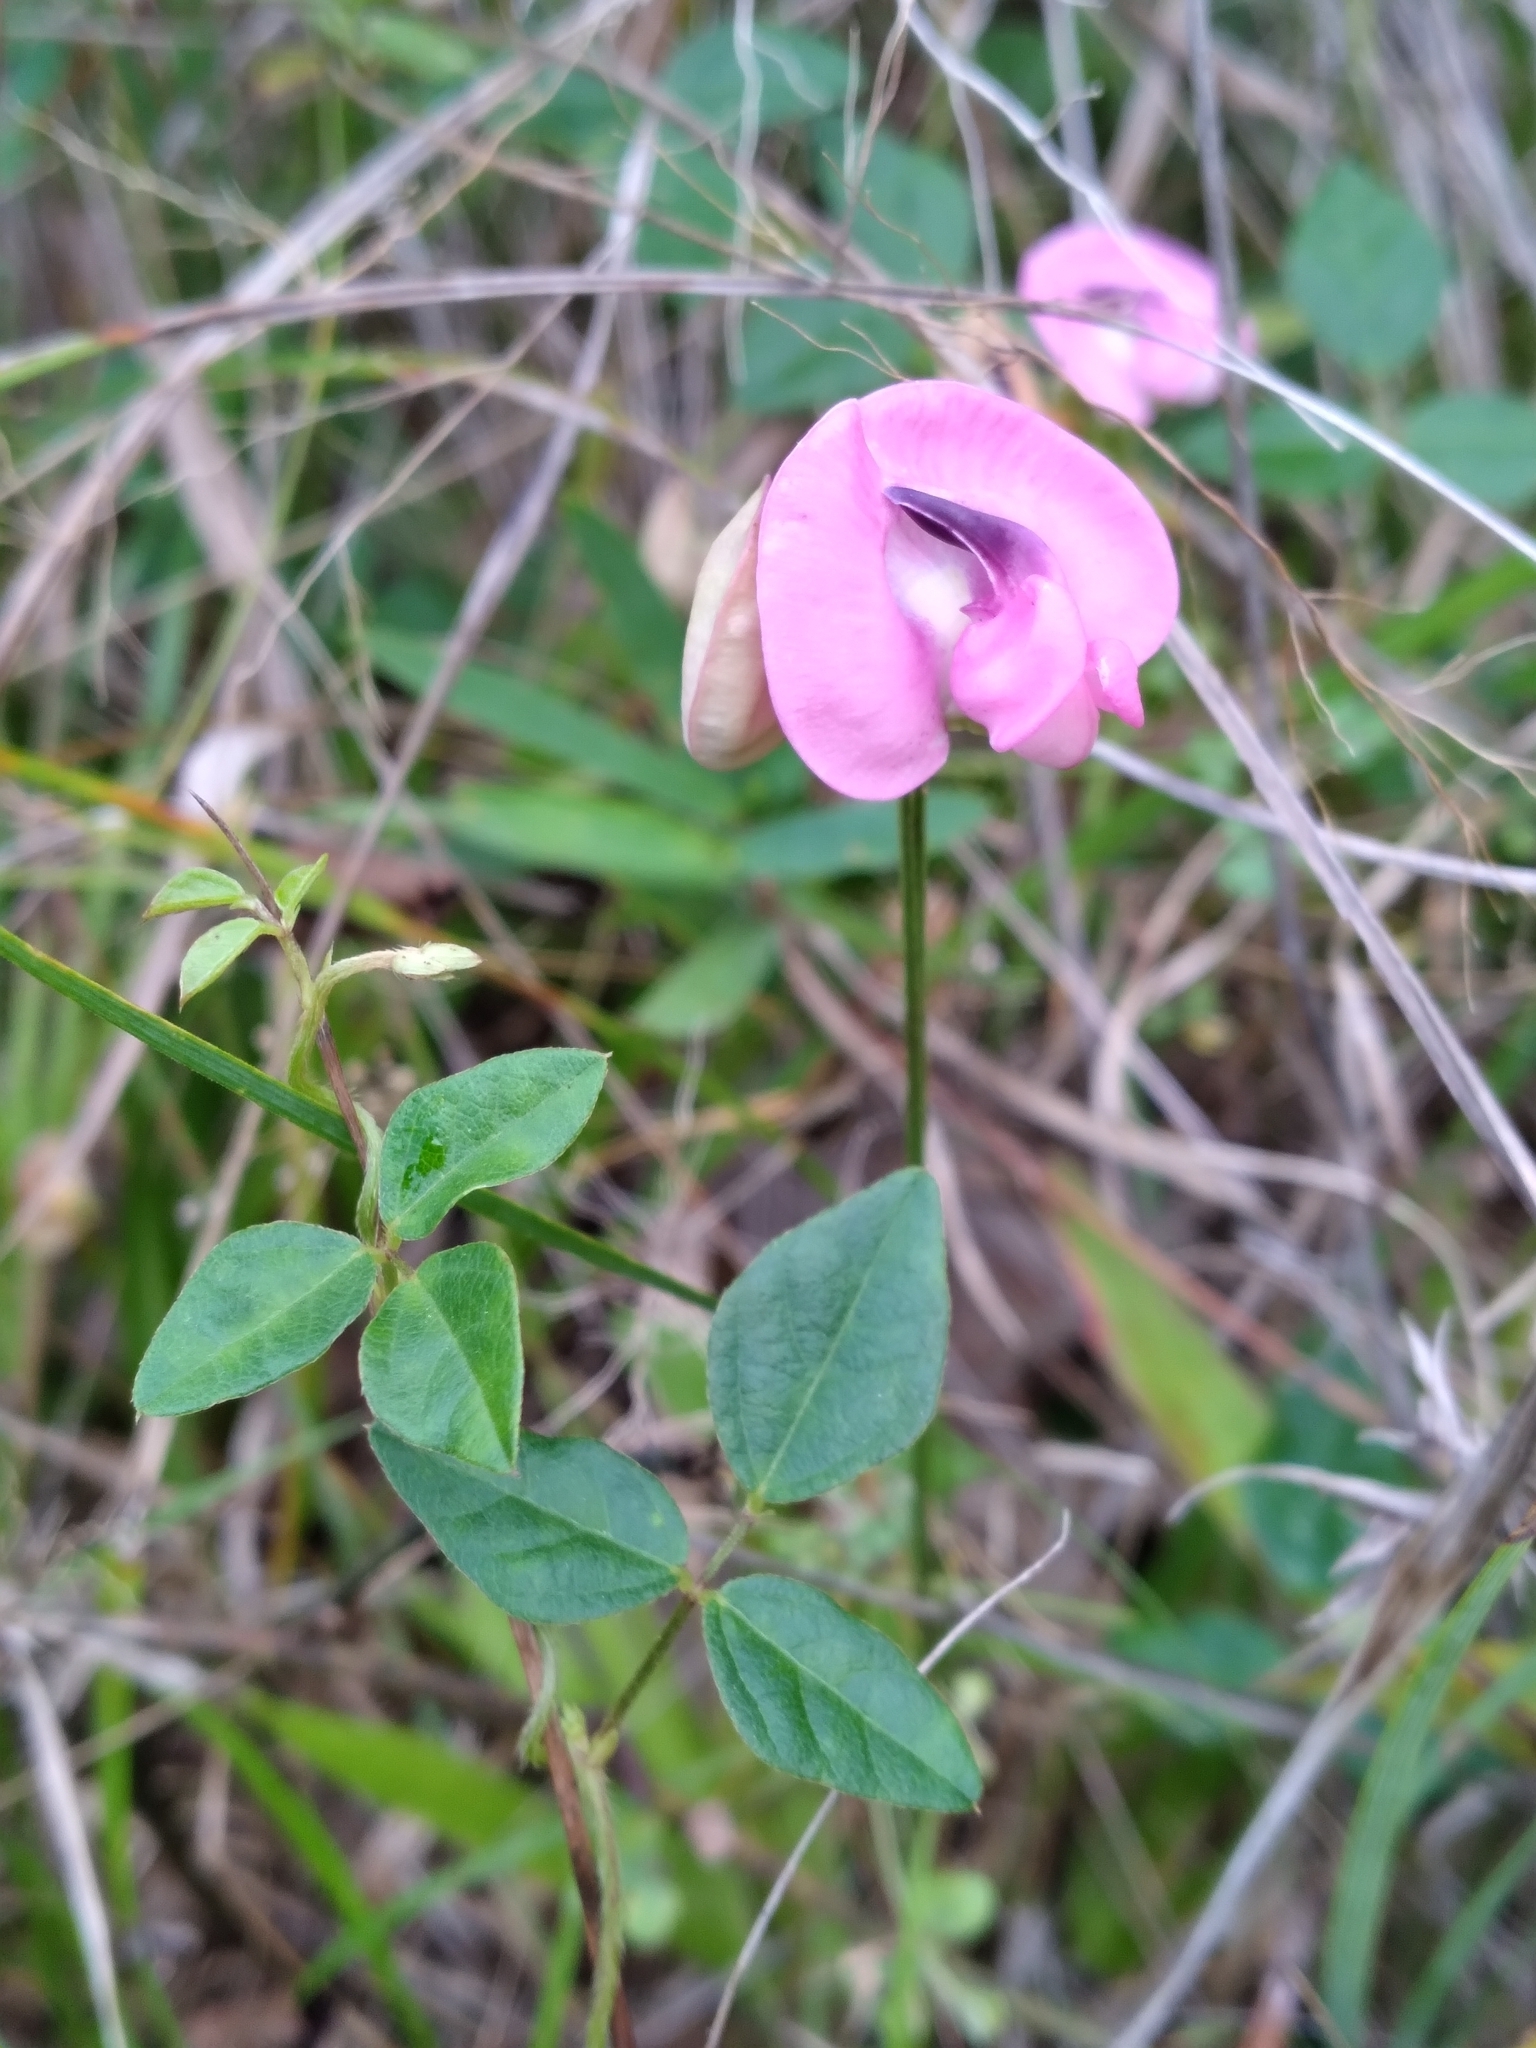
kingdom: Plantae
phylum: Tracheophyta
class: Magnoliopsida
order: Fabales
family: Fabaceae
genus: Strophostyles
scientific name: Strophostyles umbellata
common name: Perennial wild bean
